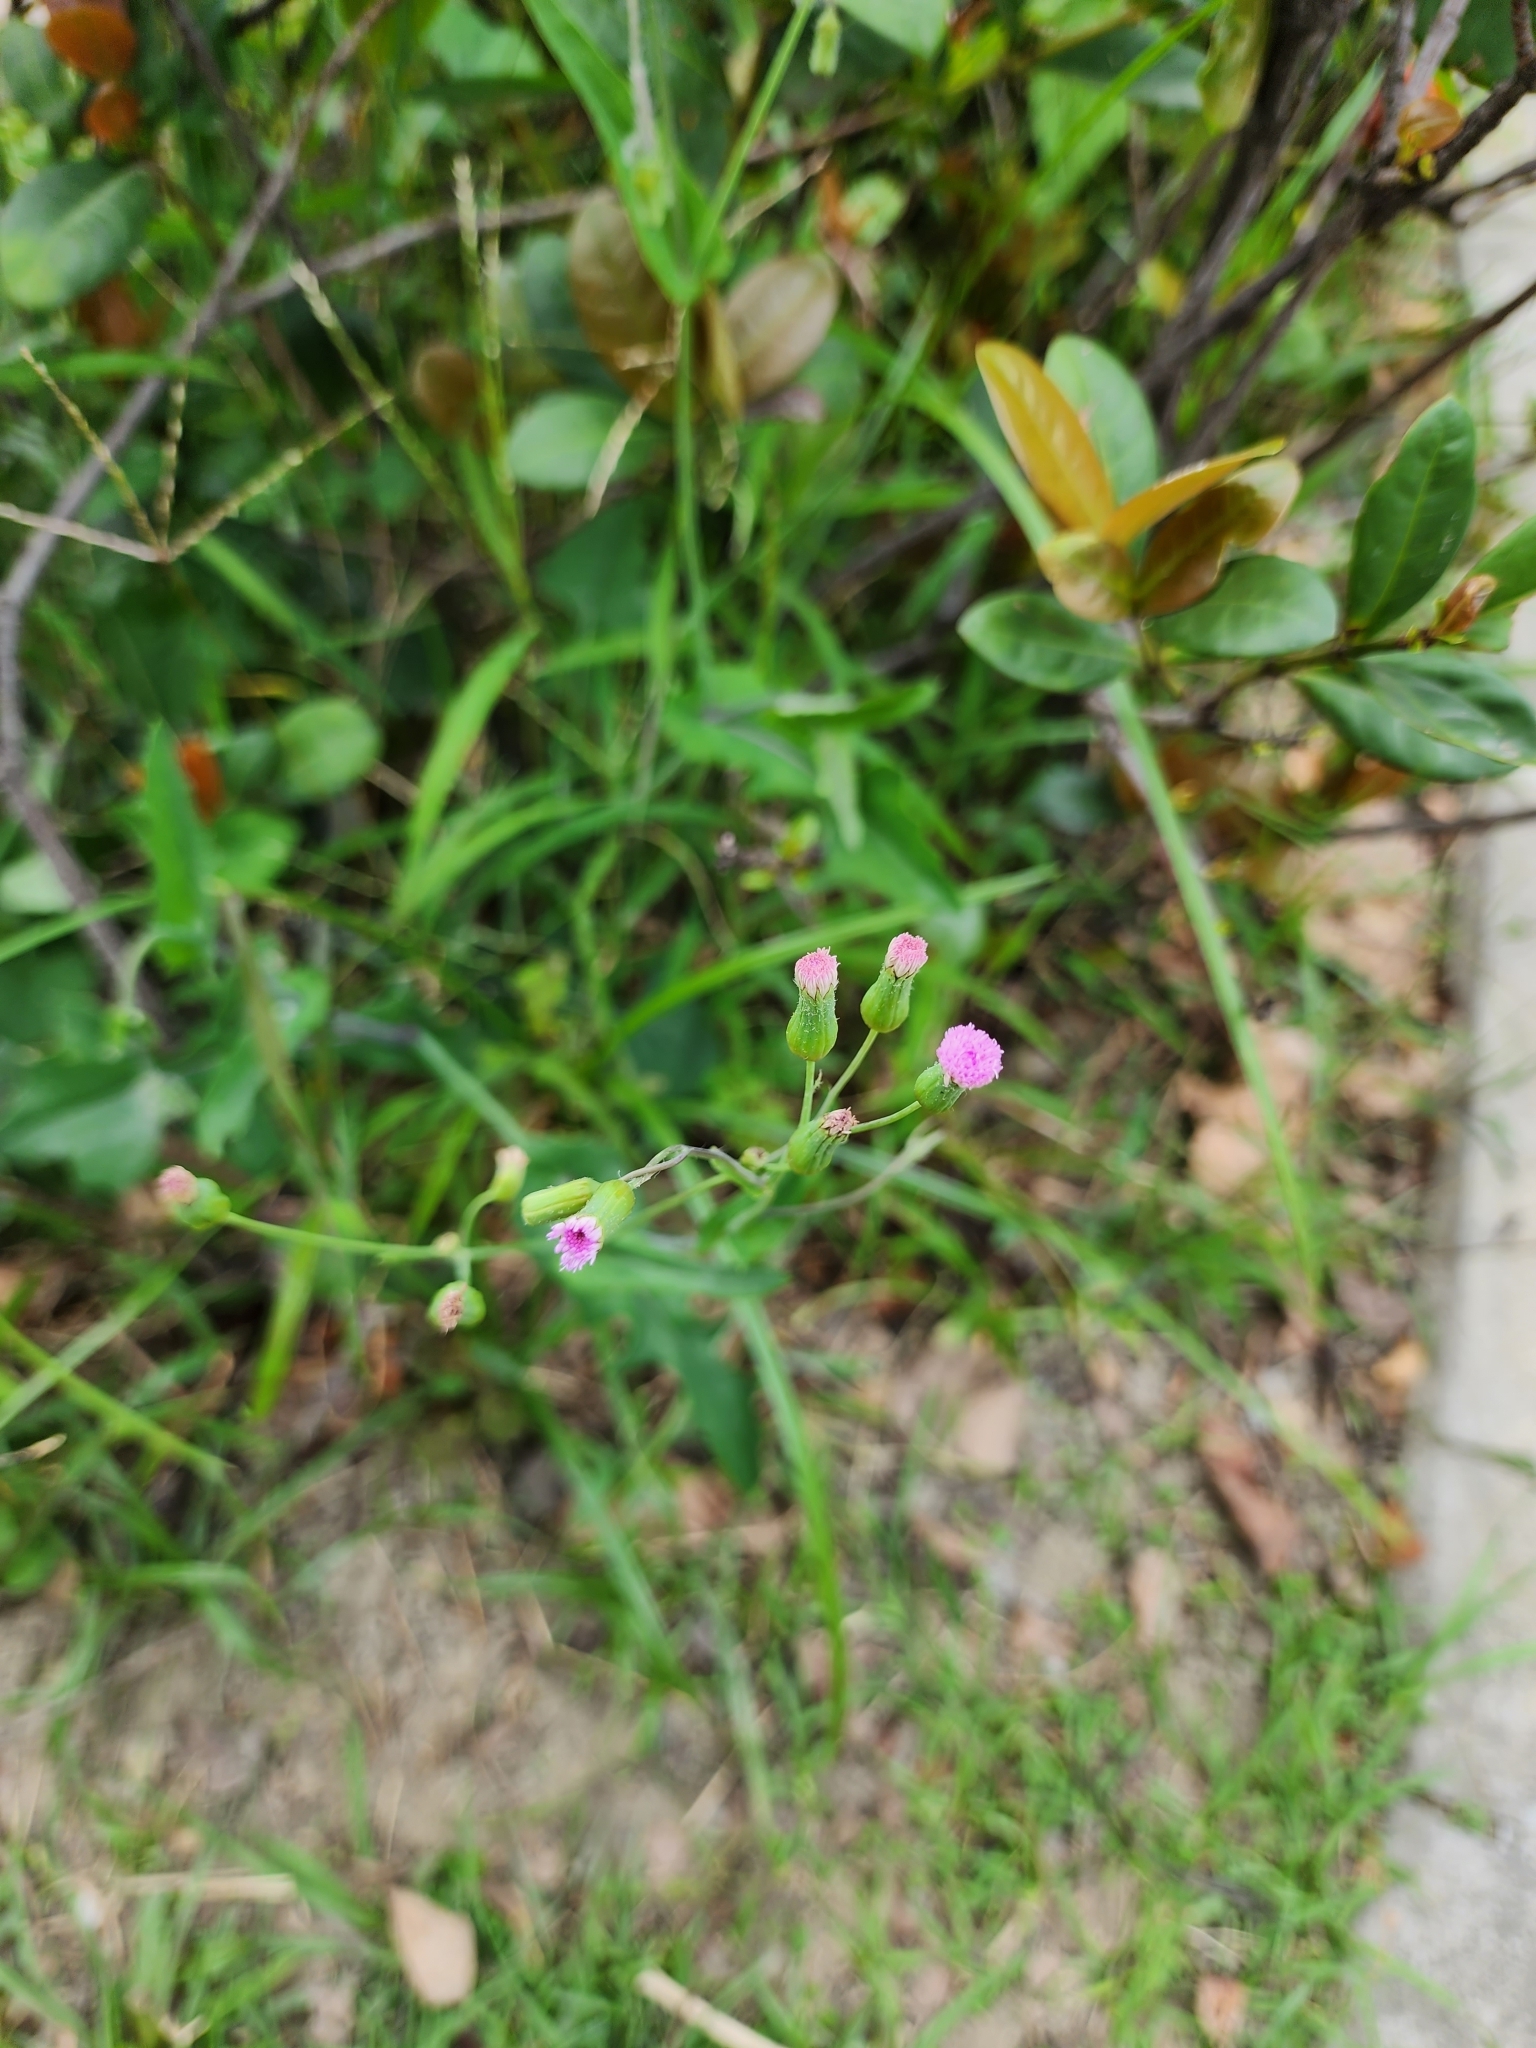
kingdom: Plantae
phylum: Tracheophyta
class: Magnoliopsida
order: Asterales
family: Asteraceae
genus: Emilia
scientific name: Emilia javanica
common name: Tassel-flower
